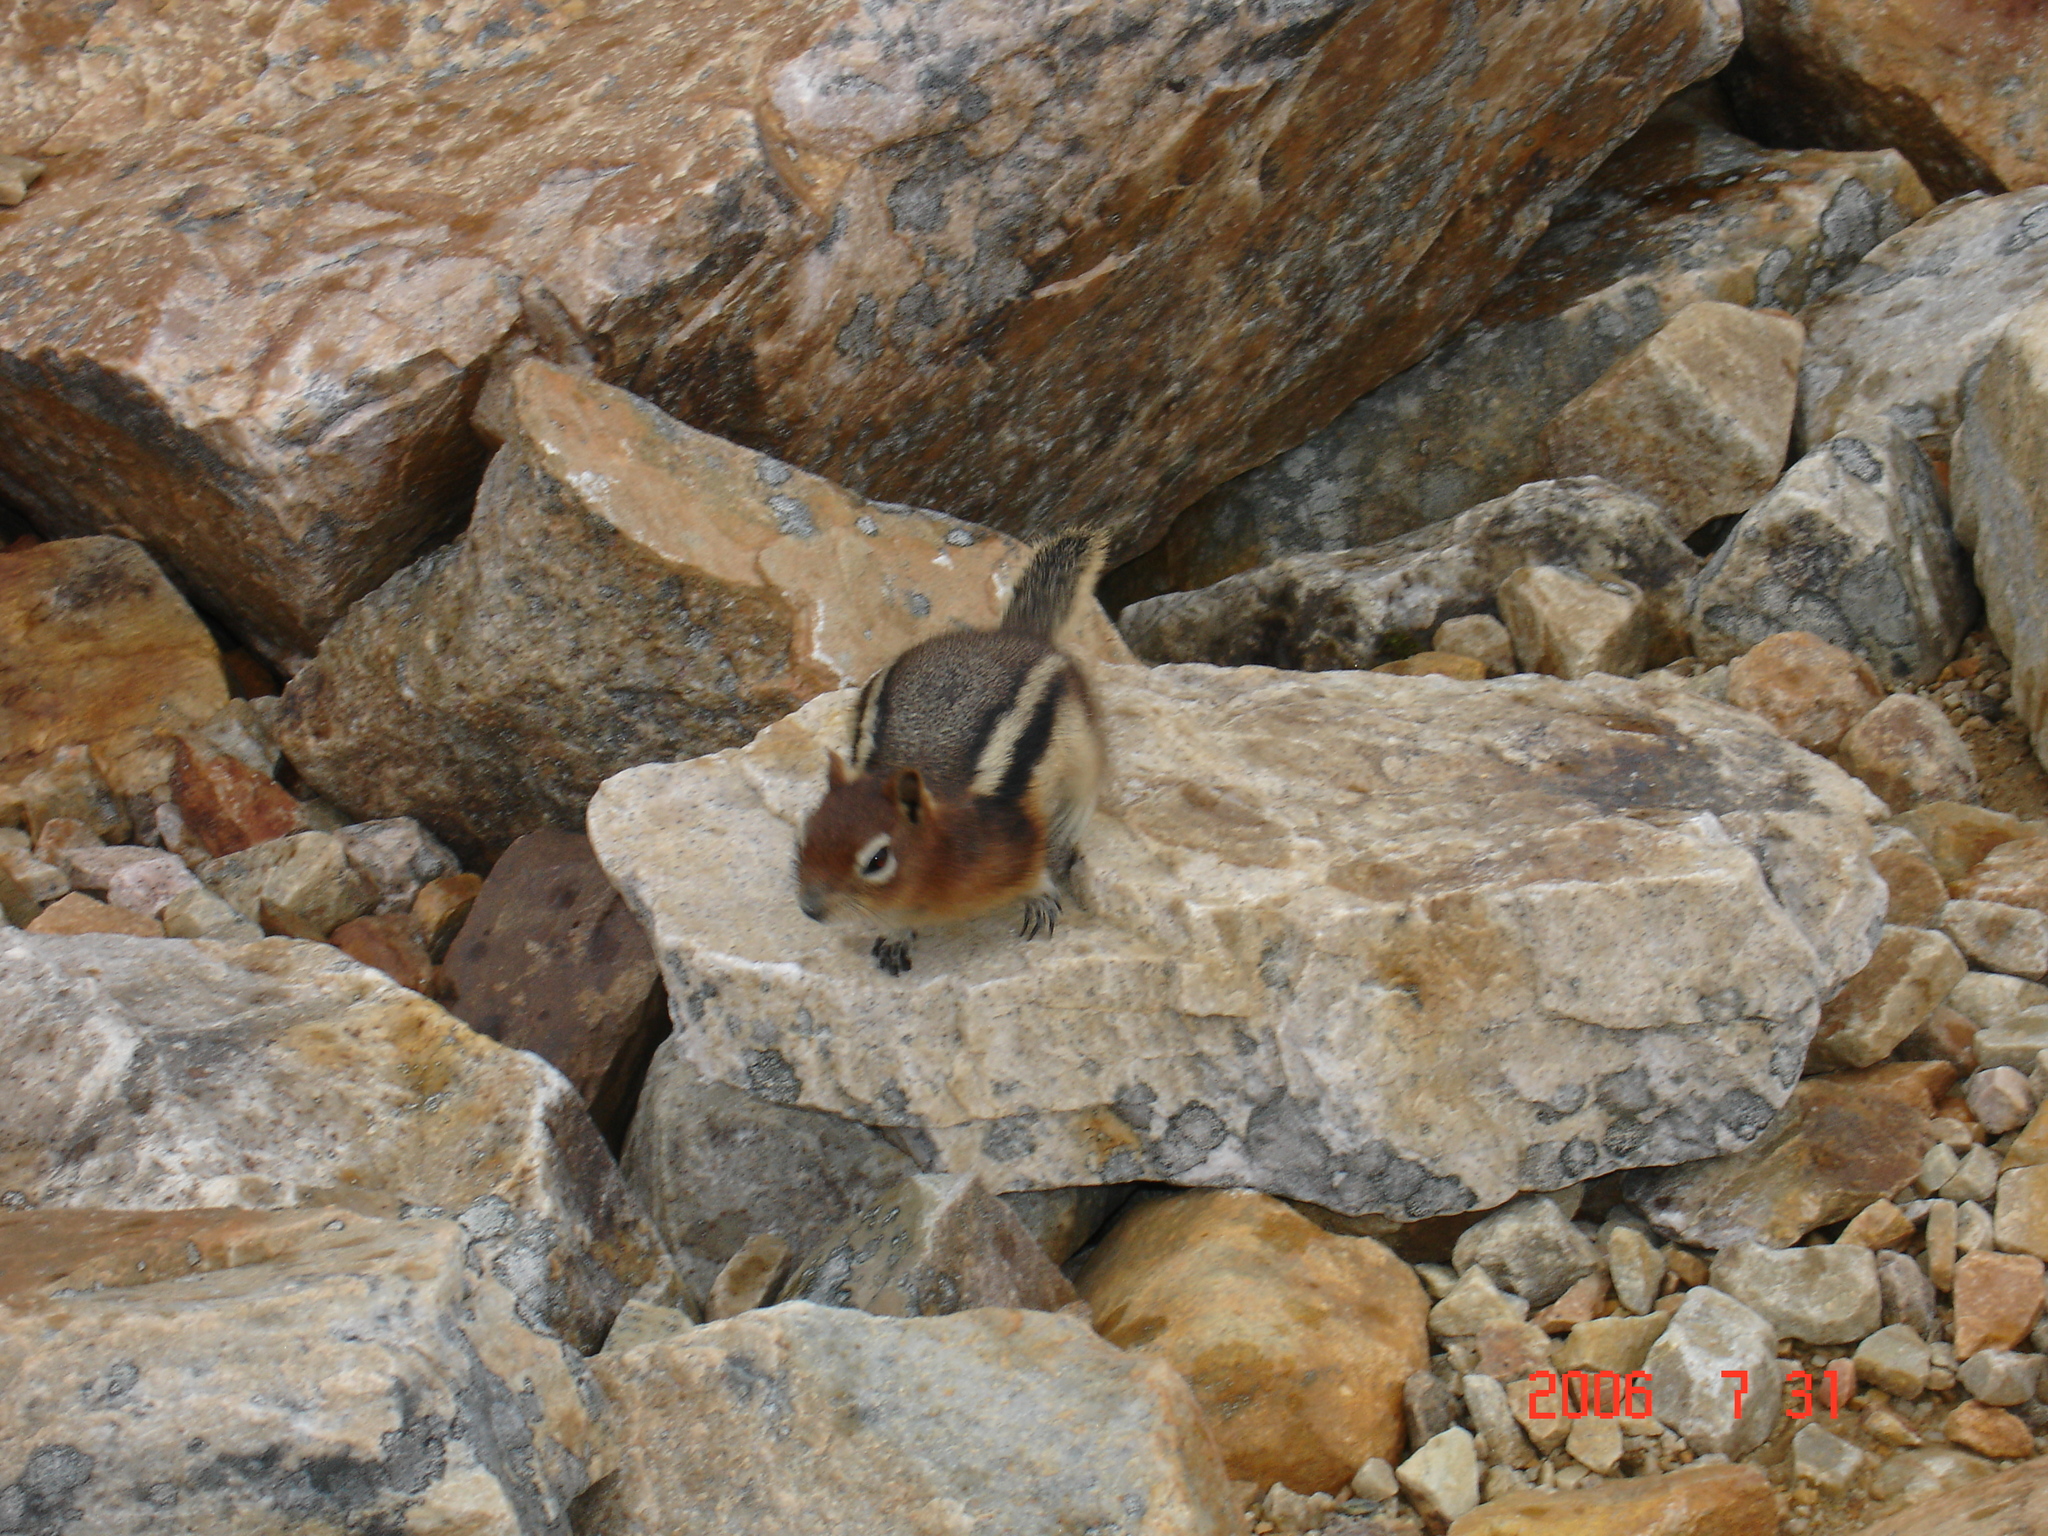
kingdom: Animalia
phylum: Chordata
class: Mammalia
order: Rodentia
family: Sciuridae
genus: Callospermophilus
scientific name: Callospermophilus lateralis
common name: Golden-mantled ground squirrel
